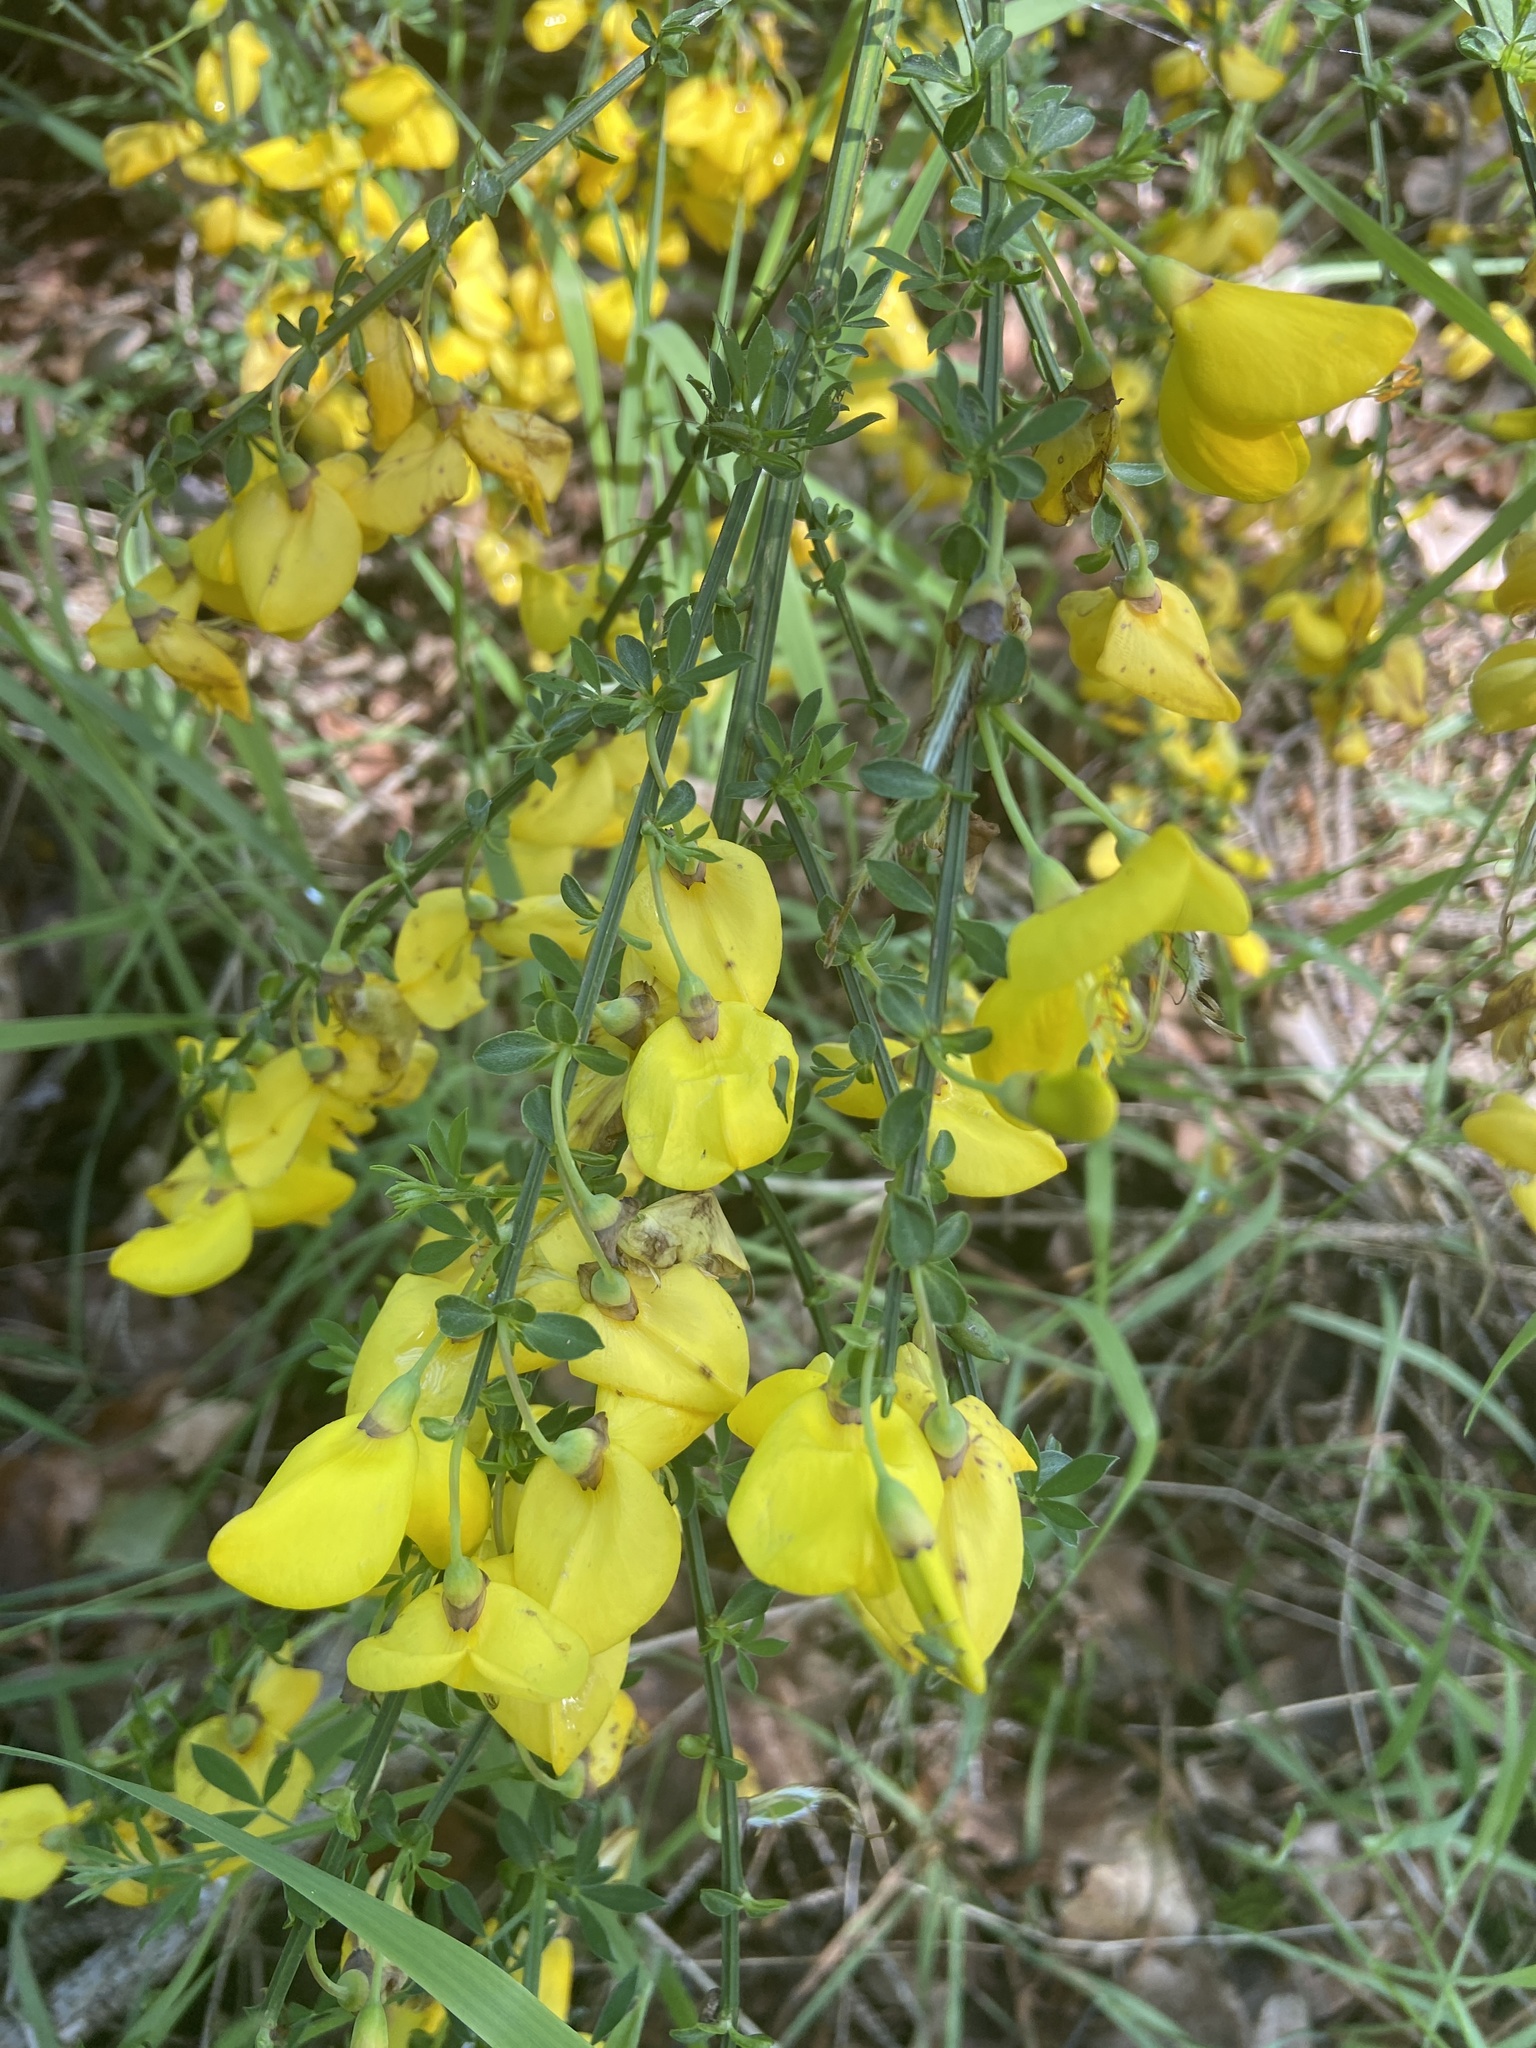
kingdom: Plantae
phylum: Tracheophyta
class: Magnoliopsida
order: Fabales
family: Fabaceae
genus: Cytisus
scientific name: Cytisus scoparius
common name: Scotch broom
